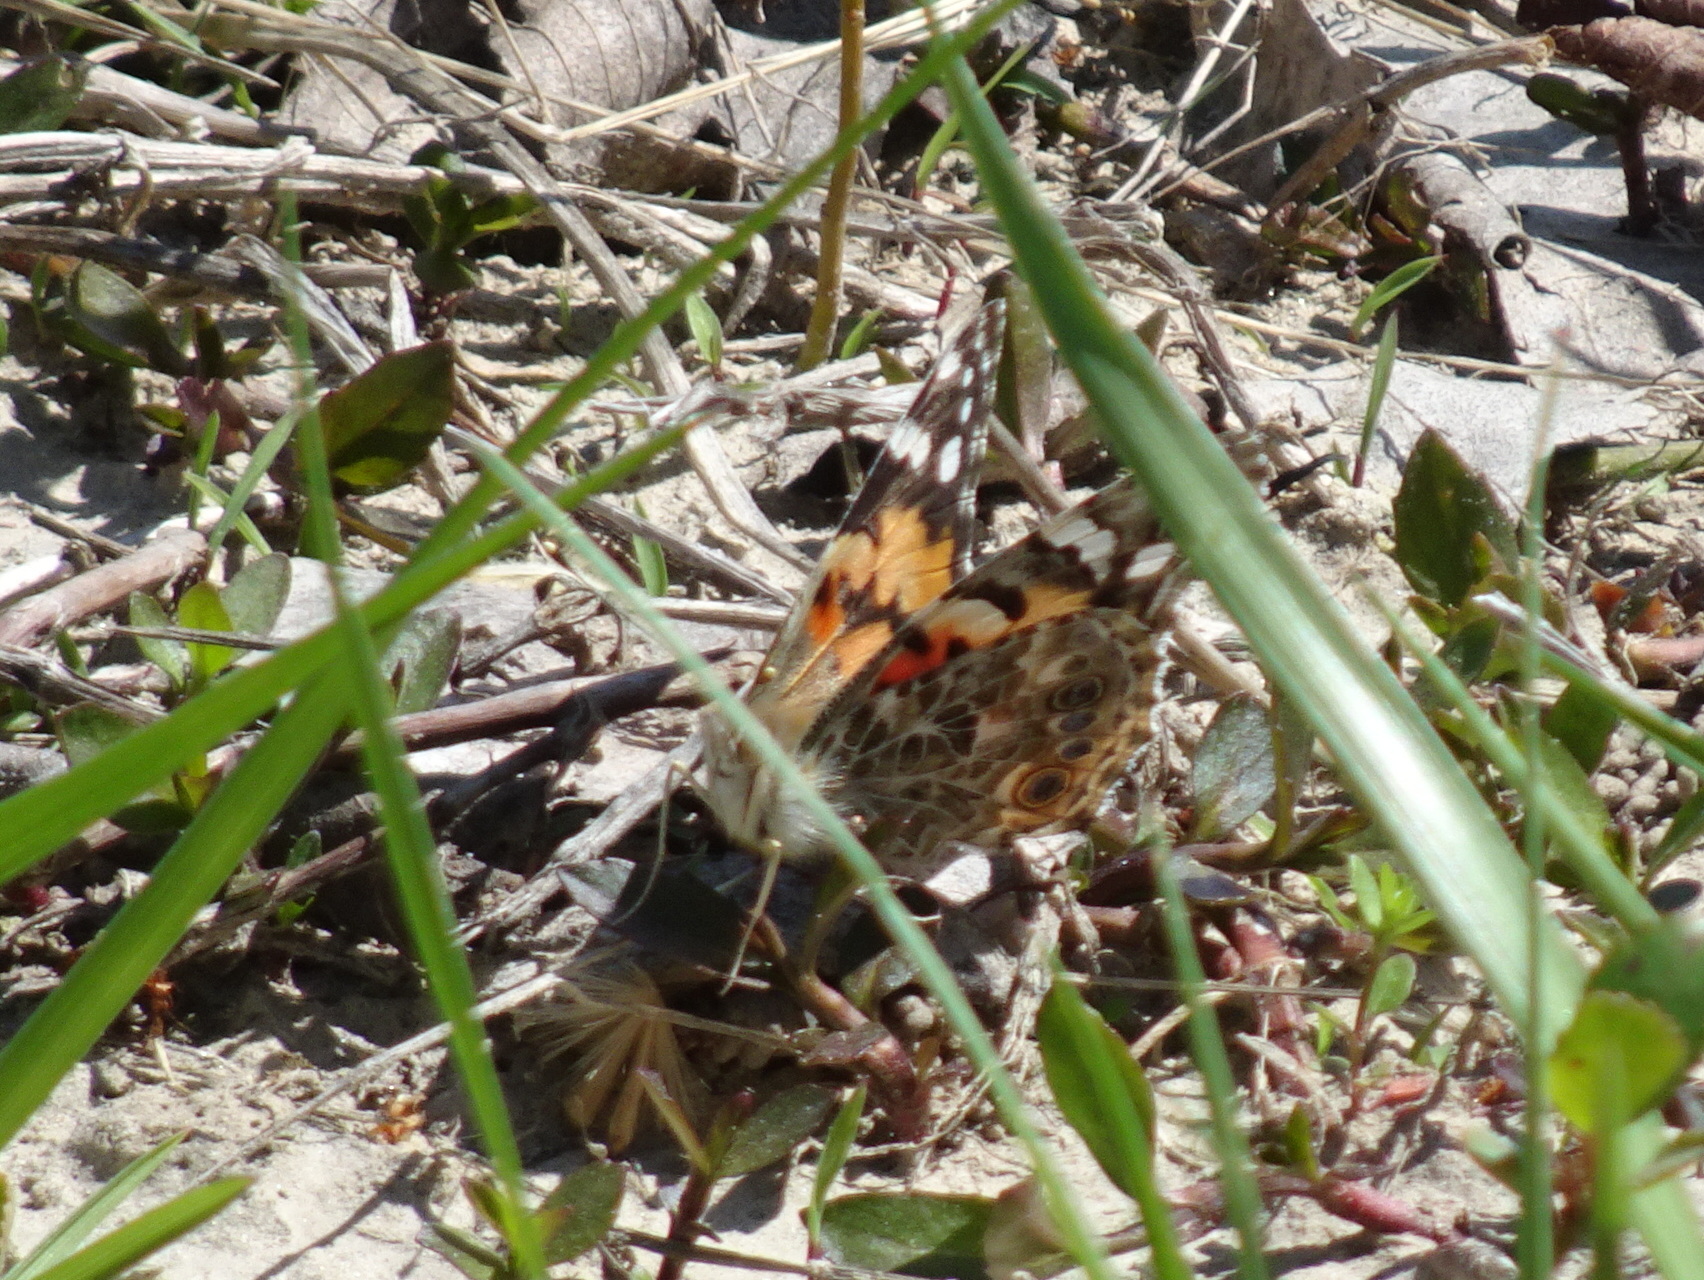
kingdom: Animalia
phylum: Arthropoda
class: Insecta
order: Lepidoptera
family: Nymphalidae
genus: Vanessa
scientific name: Vanessa cardui
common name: Painted lady
